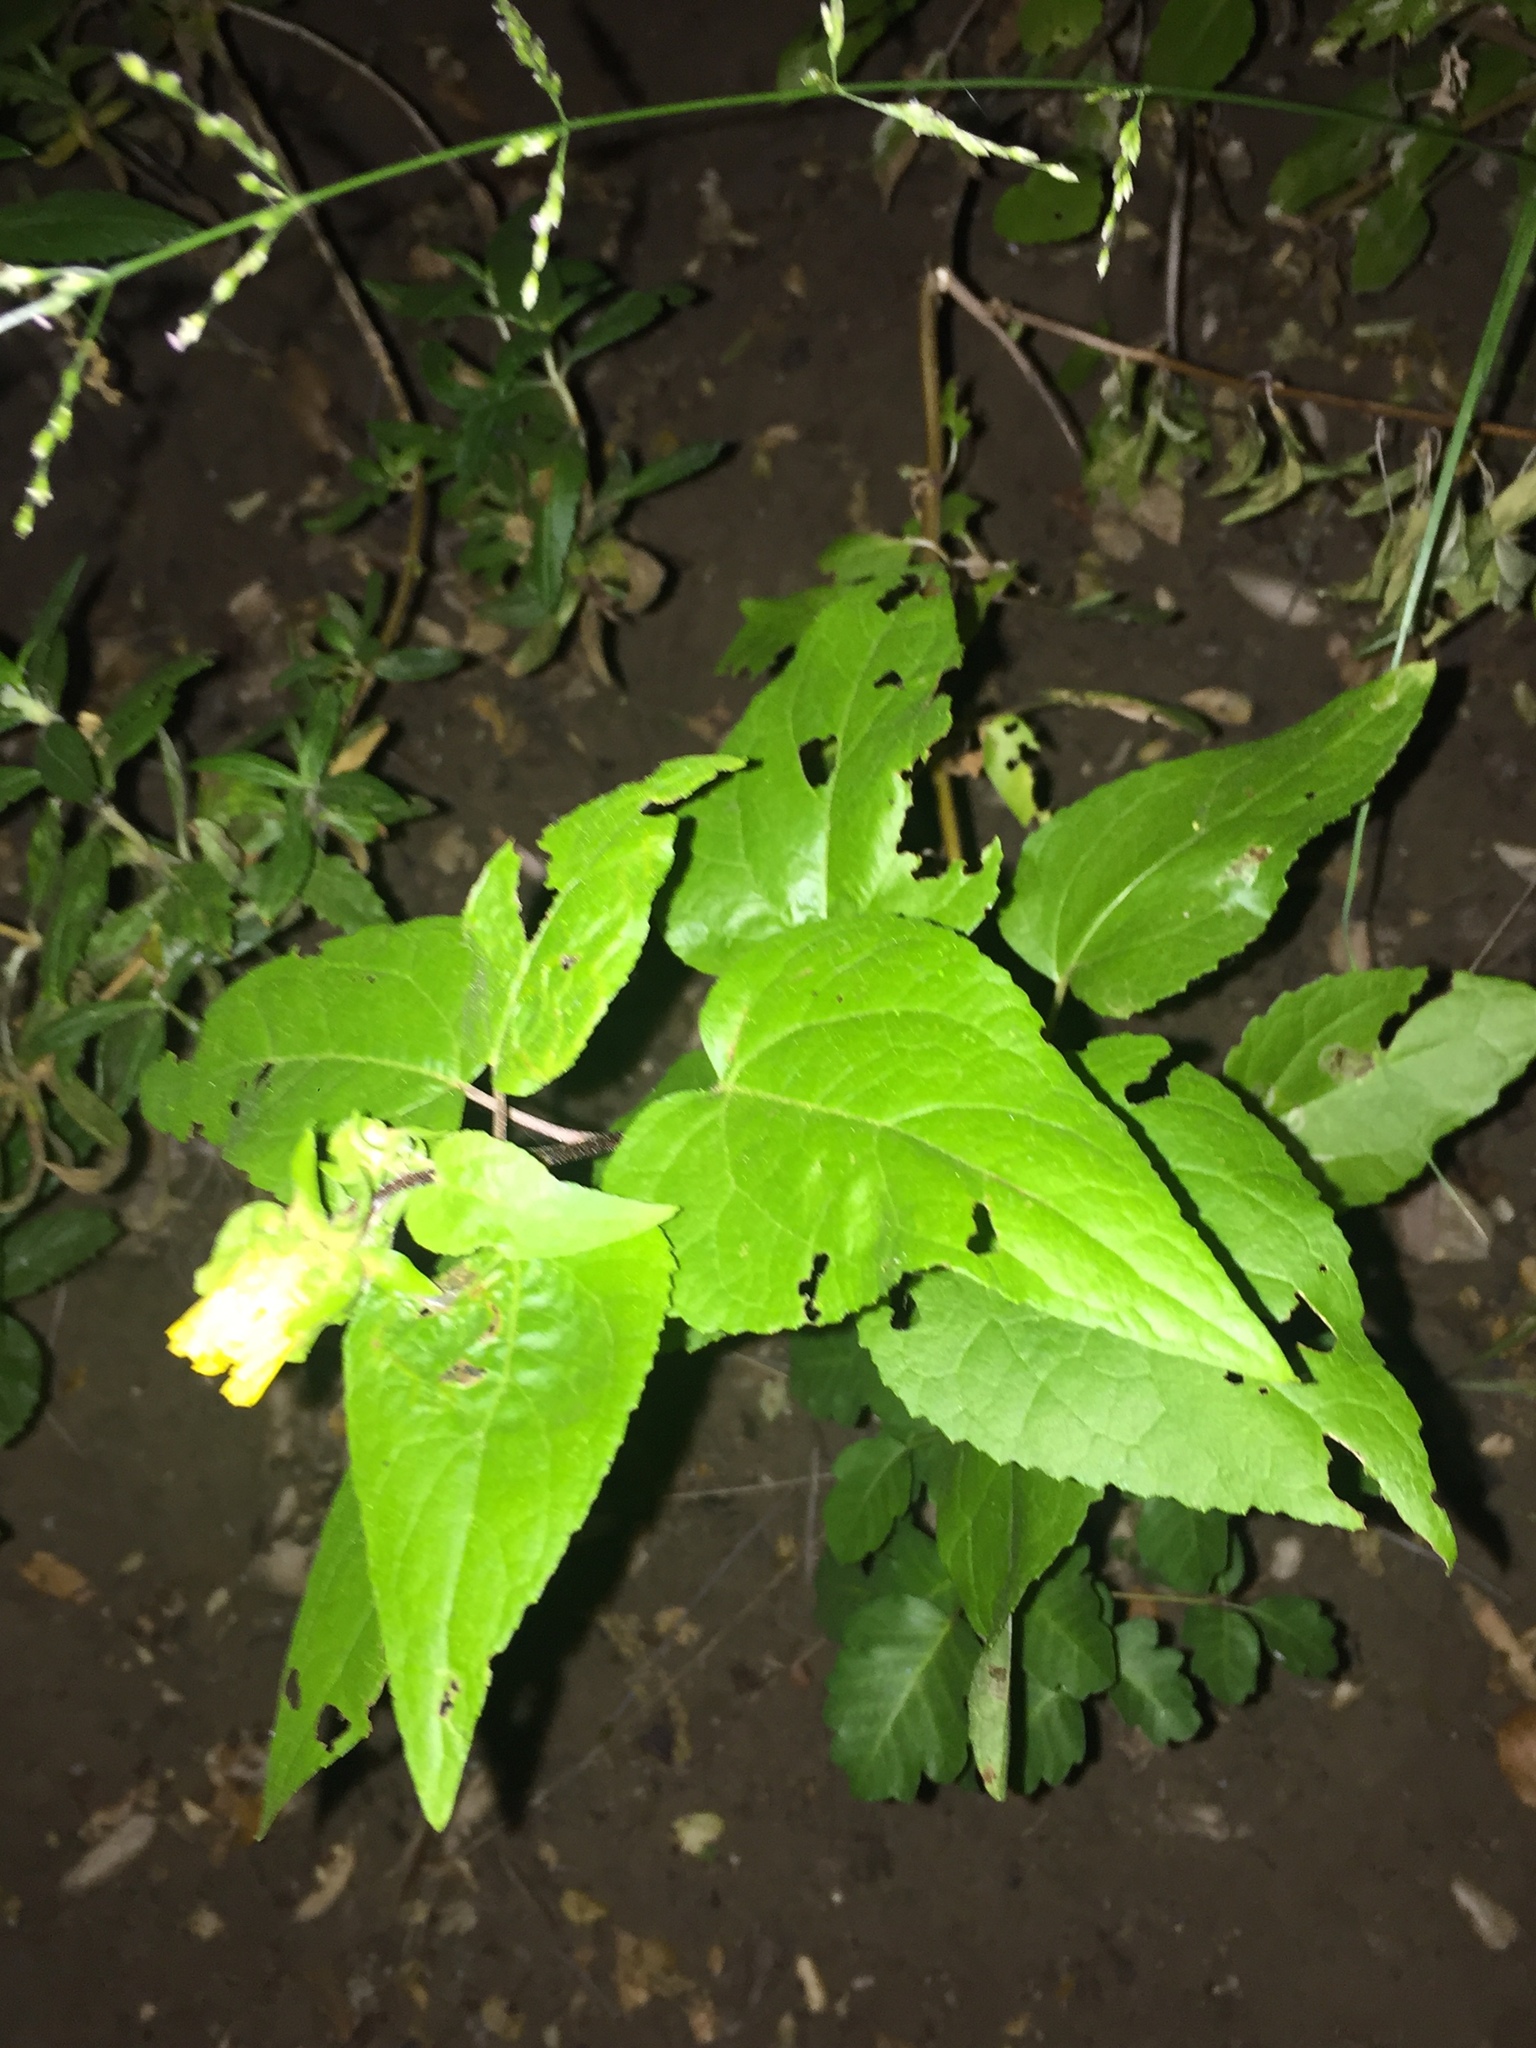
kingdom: Plantae
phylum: Tracheophyta
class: Magnoliopsida
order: Asterales
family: Asteraceae
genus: Venegasia
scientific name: Venegasia carpesioides
